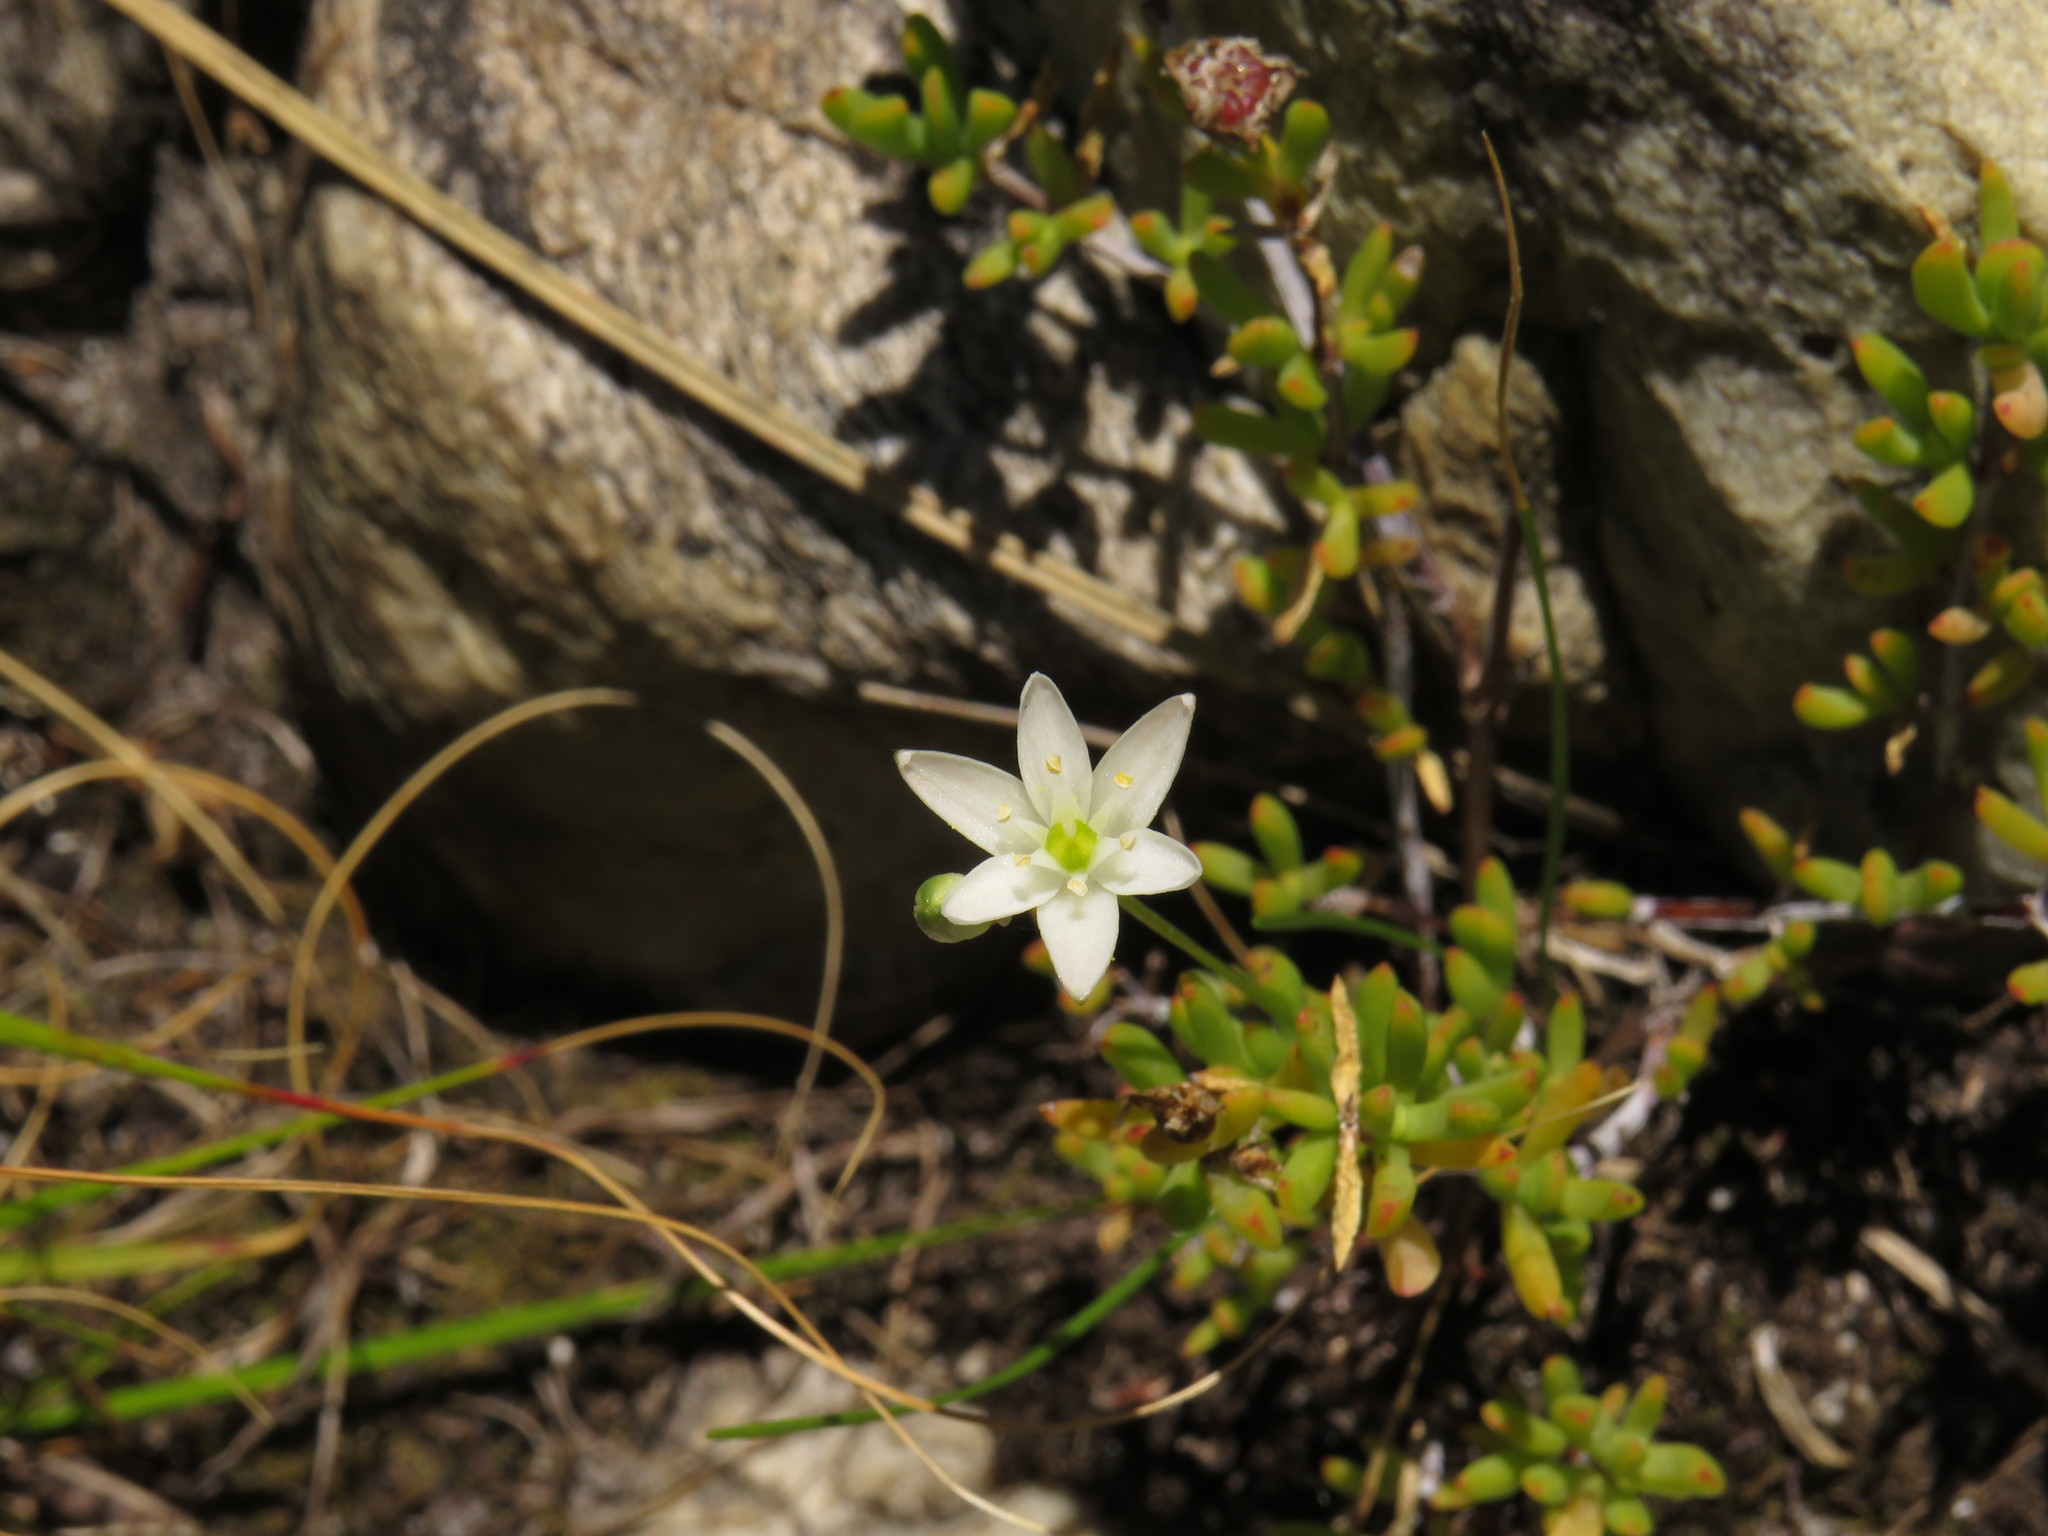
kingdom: Plantae
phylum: Tracheophyta
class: Liliopsida
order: Asparagales
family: Asparagaceae
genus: Ornithogalum
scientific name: Ornithogalum niveum
